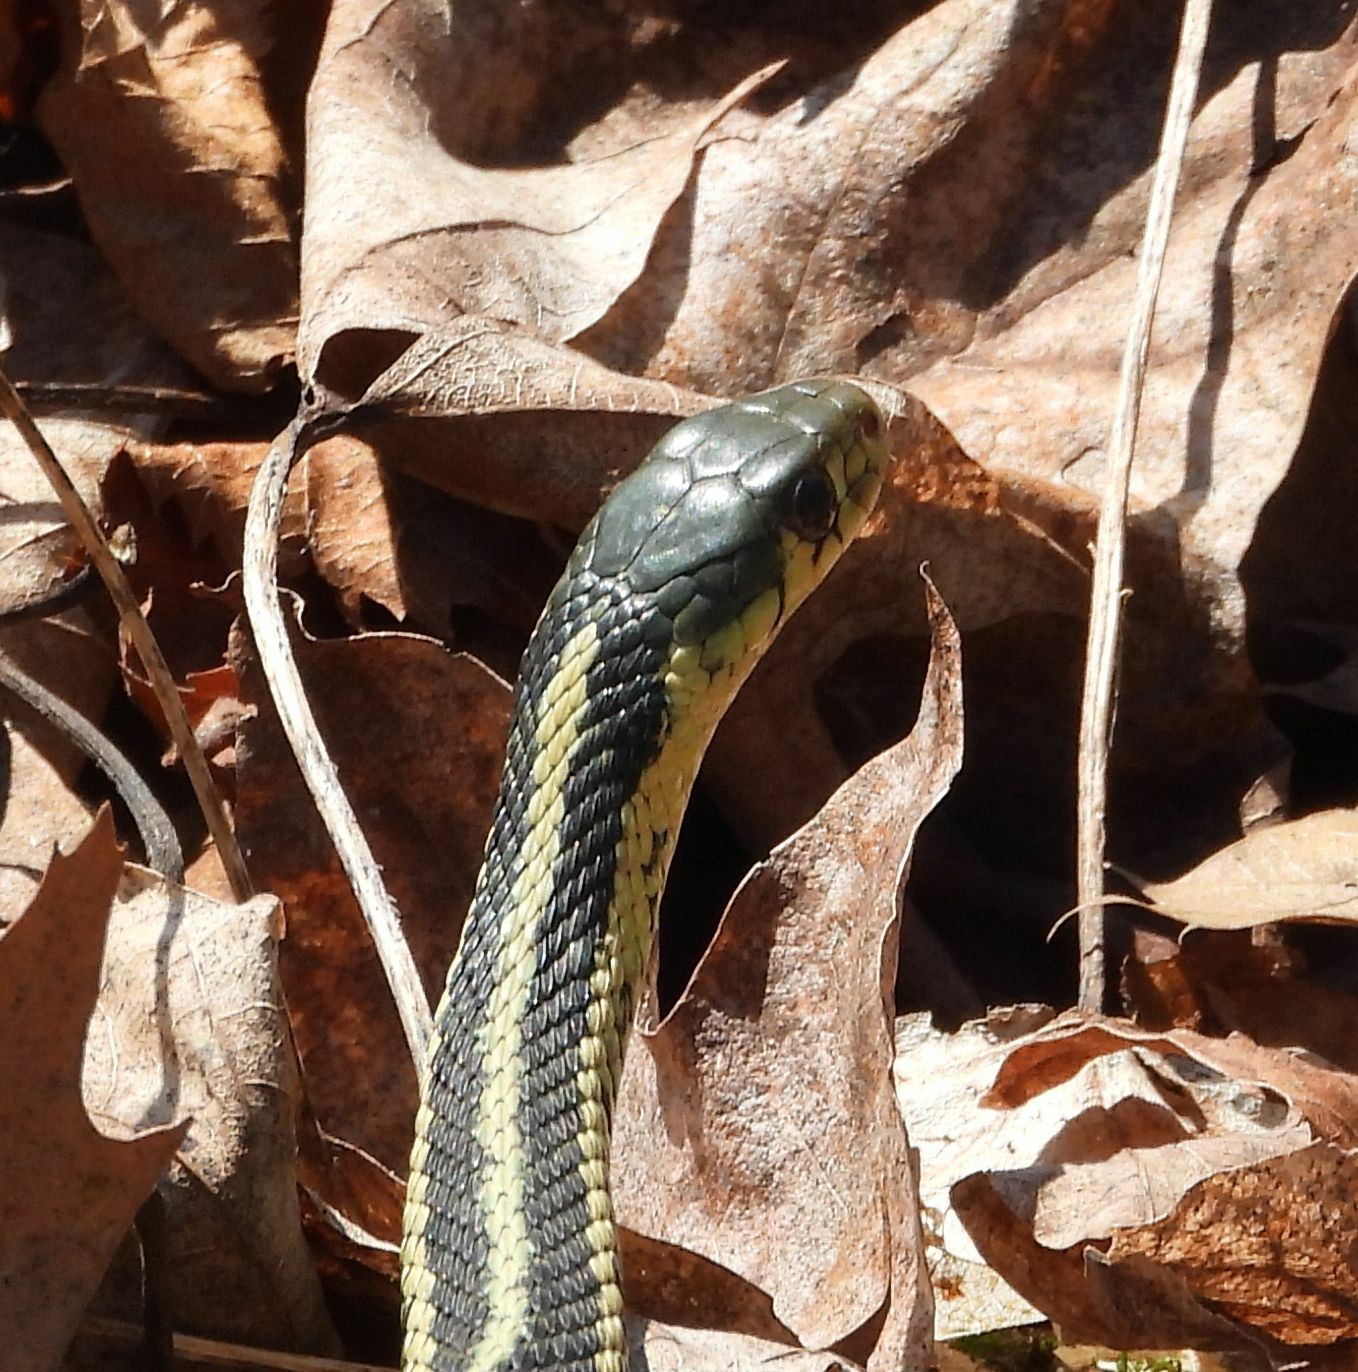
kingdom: Animalia
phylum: Chordata
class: Squamata
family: Colubridae
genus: Thamnophis
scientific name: Thamnophis sirtalis
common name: Common garter snake
